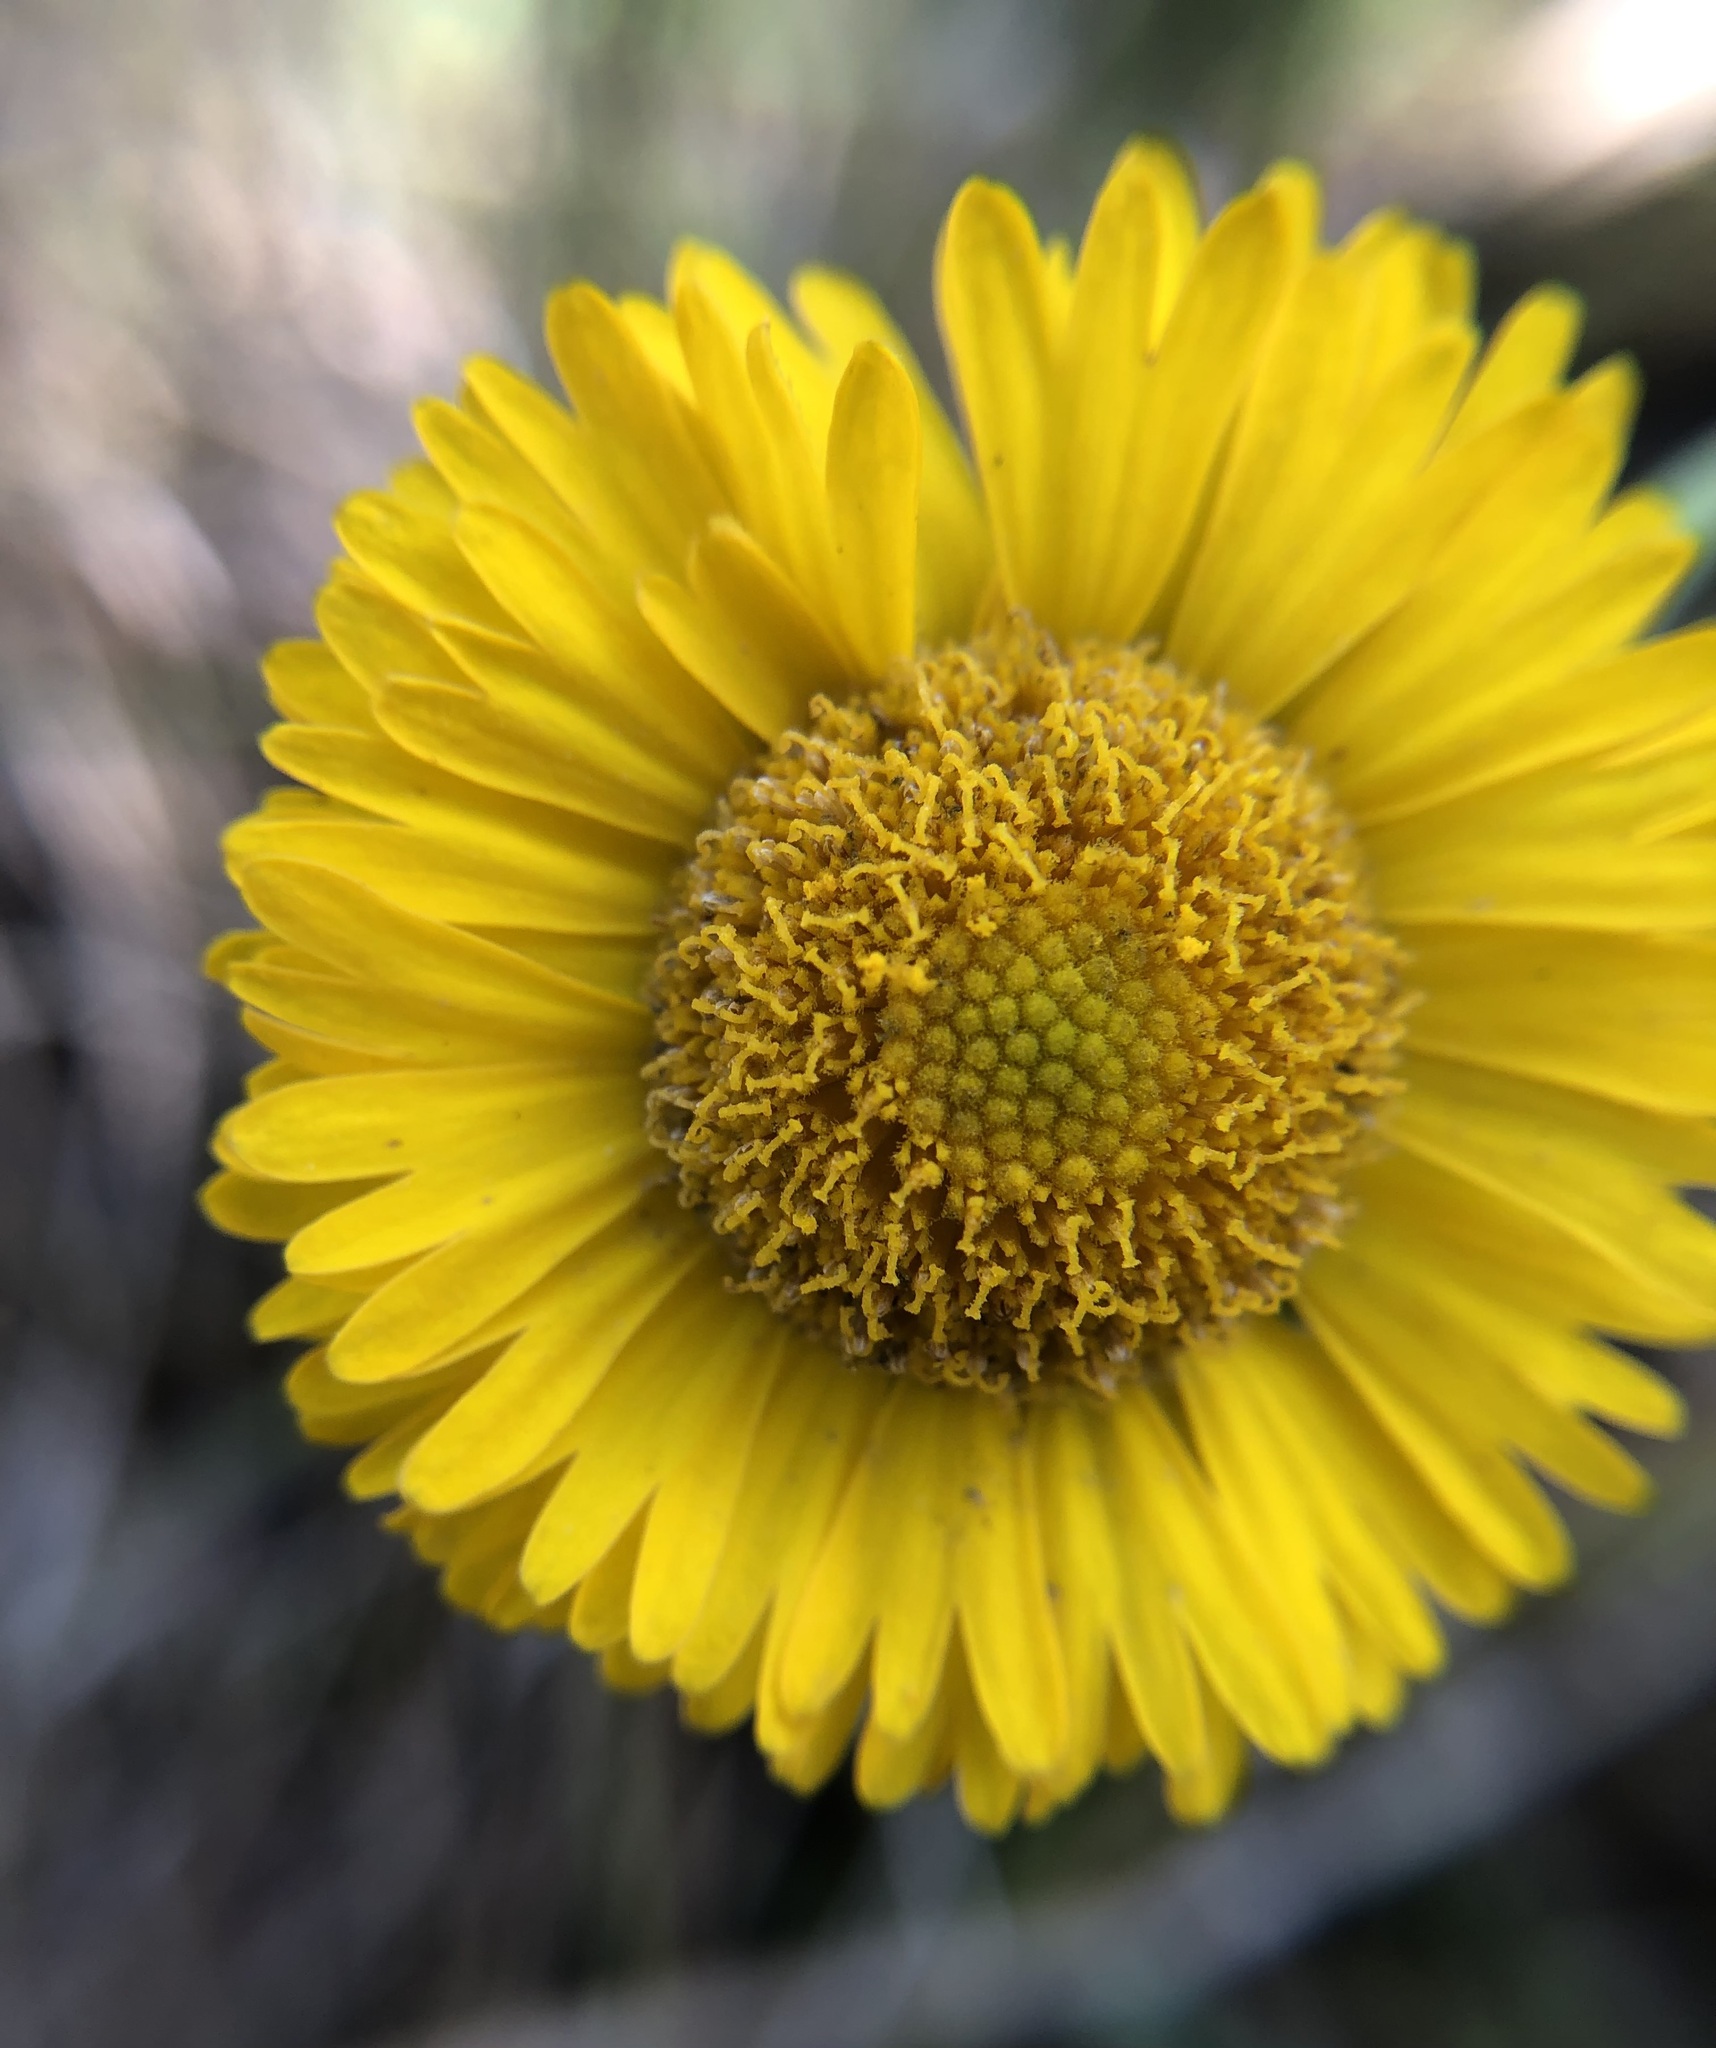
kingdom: Plantae
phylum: Tracheophyta
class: Magnoliopsida
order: Asterales
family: Asteraceae
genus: Helenium
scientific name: Helenium pinnatifidum
